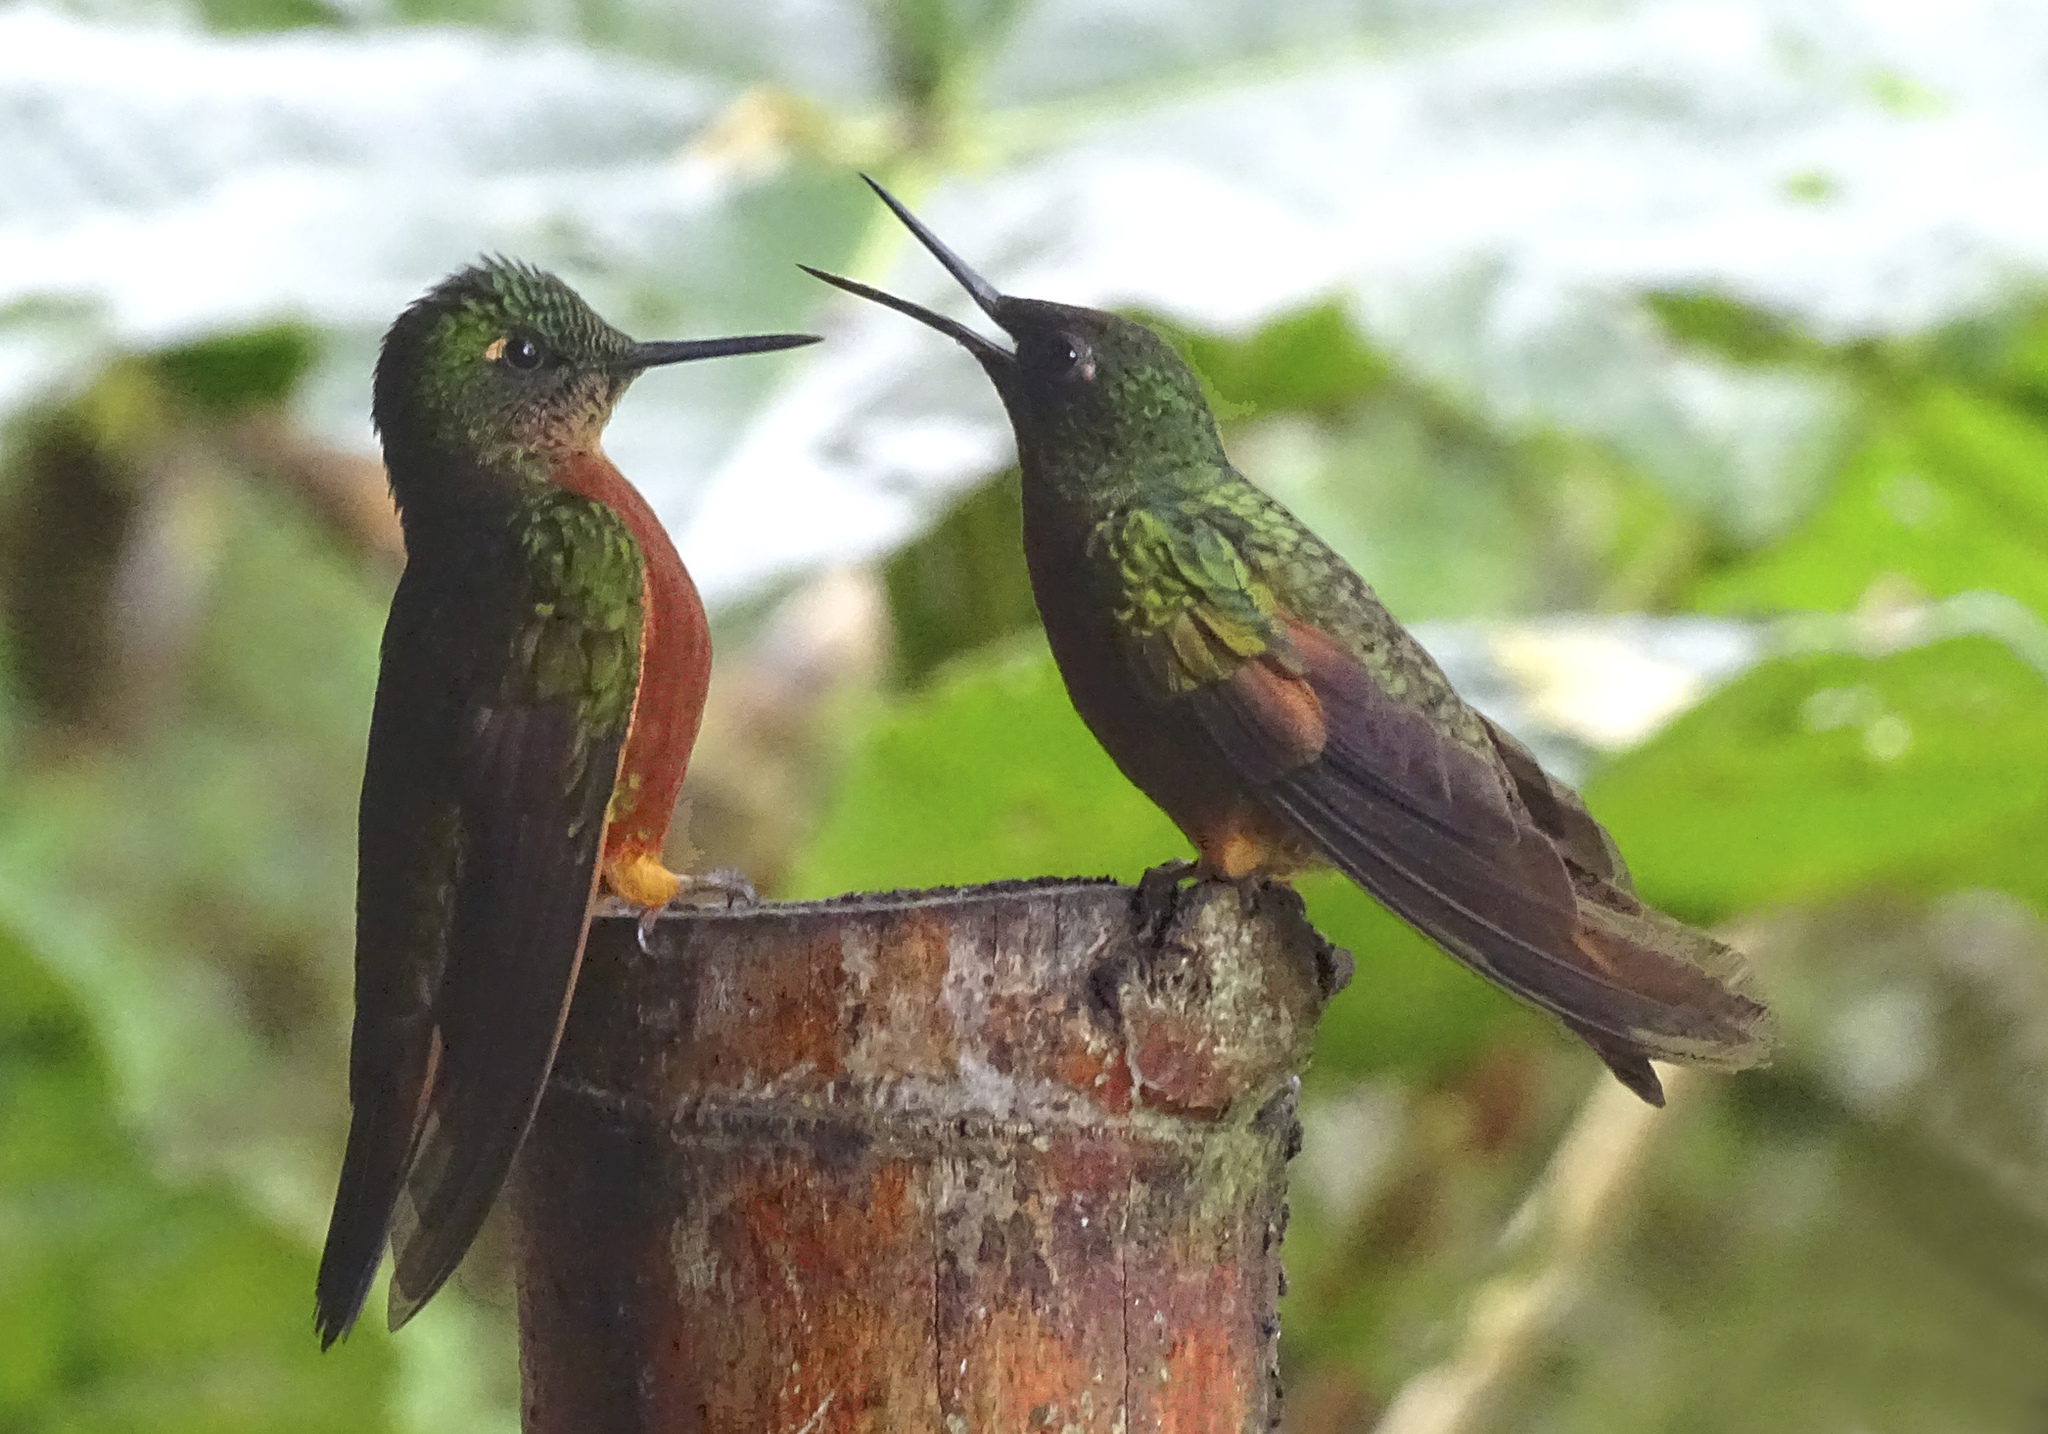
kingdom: Animalia
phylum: Chordata
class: Aves
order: Apodiformes
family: Trochilidae
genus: Boissonneaua
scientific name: Boissonneaua matthewsii
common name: Chestnut-breasted coronet
